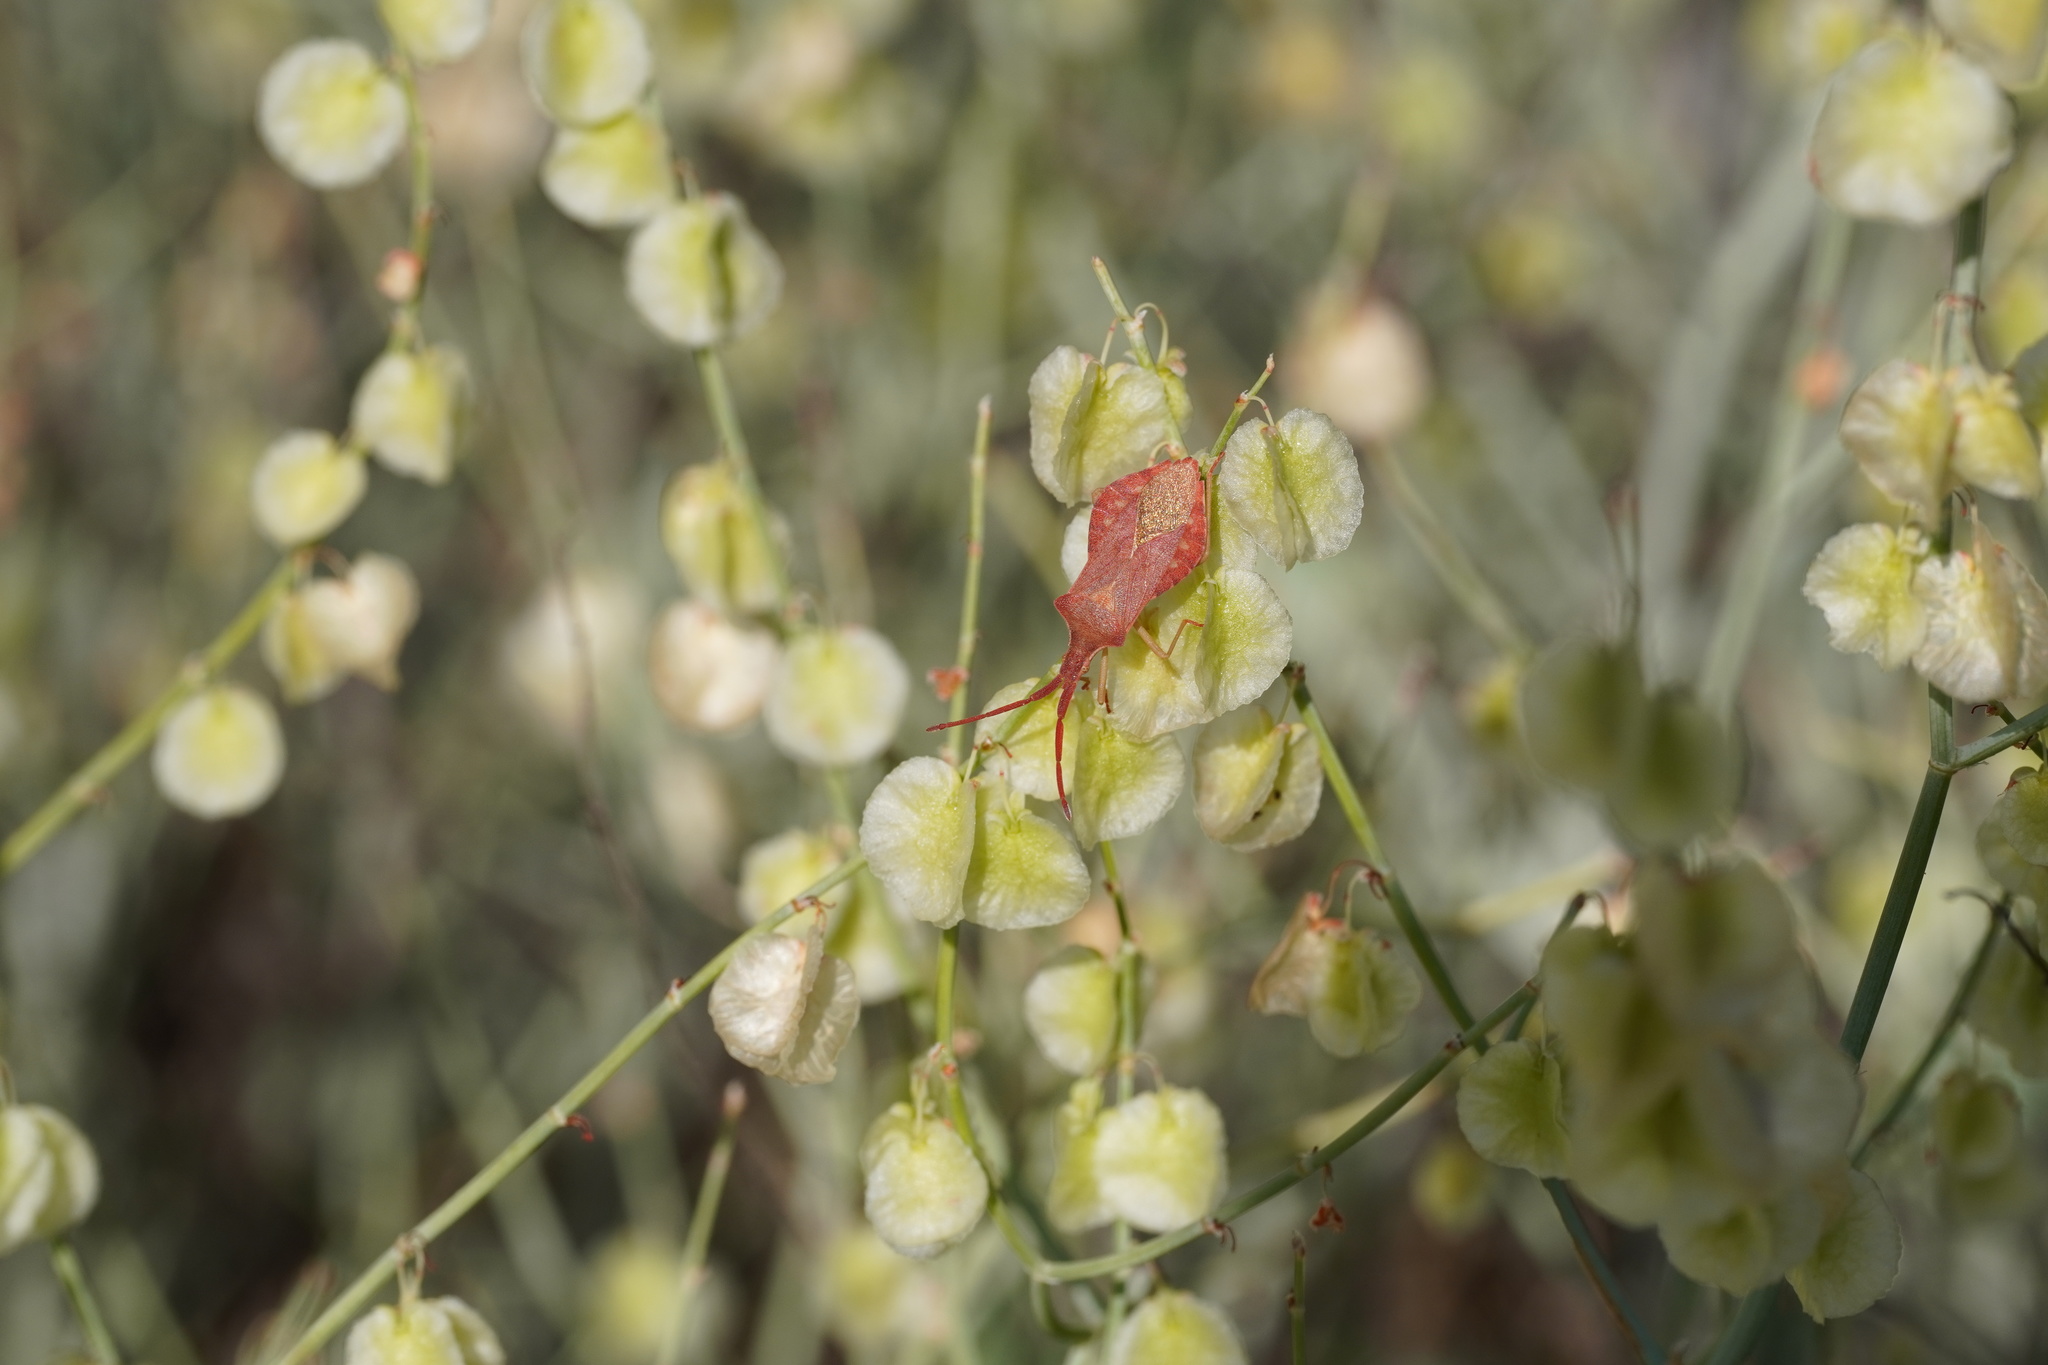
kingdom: Animalia
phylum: Arthropoda
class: Insecta
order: Hemiptera
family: Coreidae
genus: Haploprocta
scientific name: Haploprocta sulcicornis
